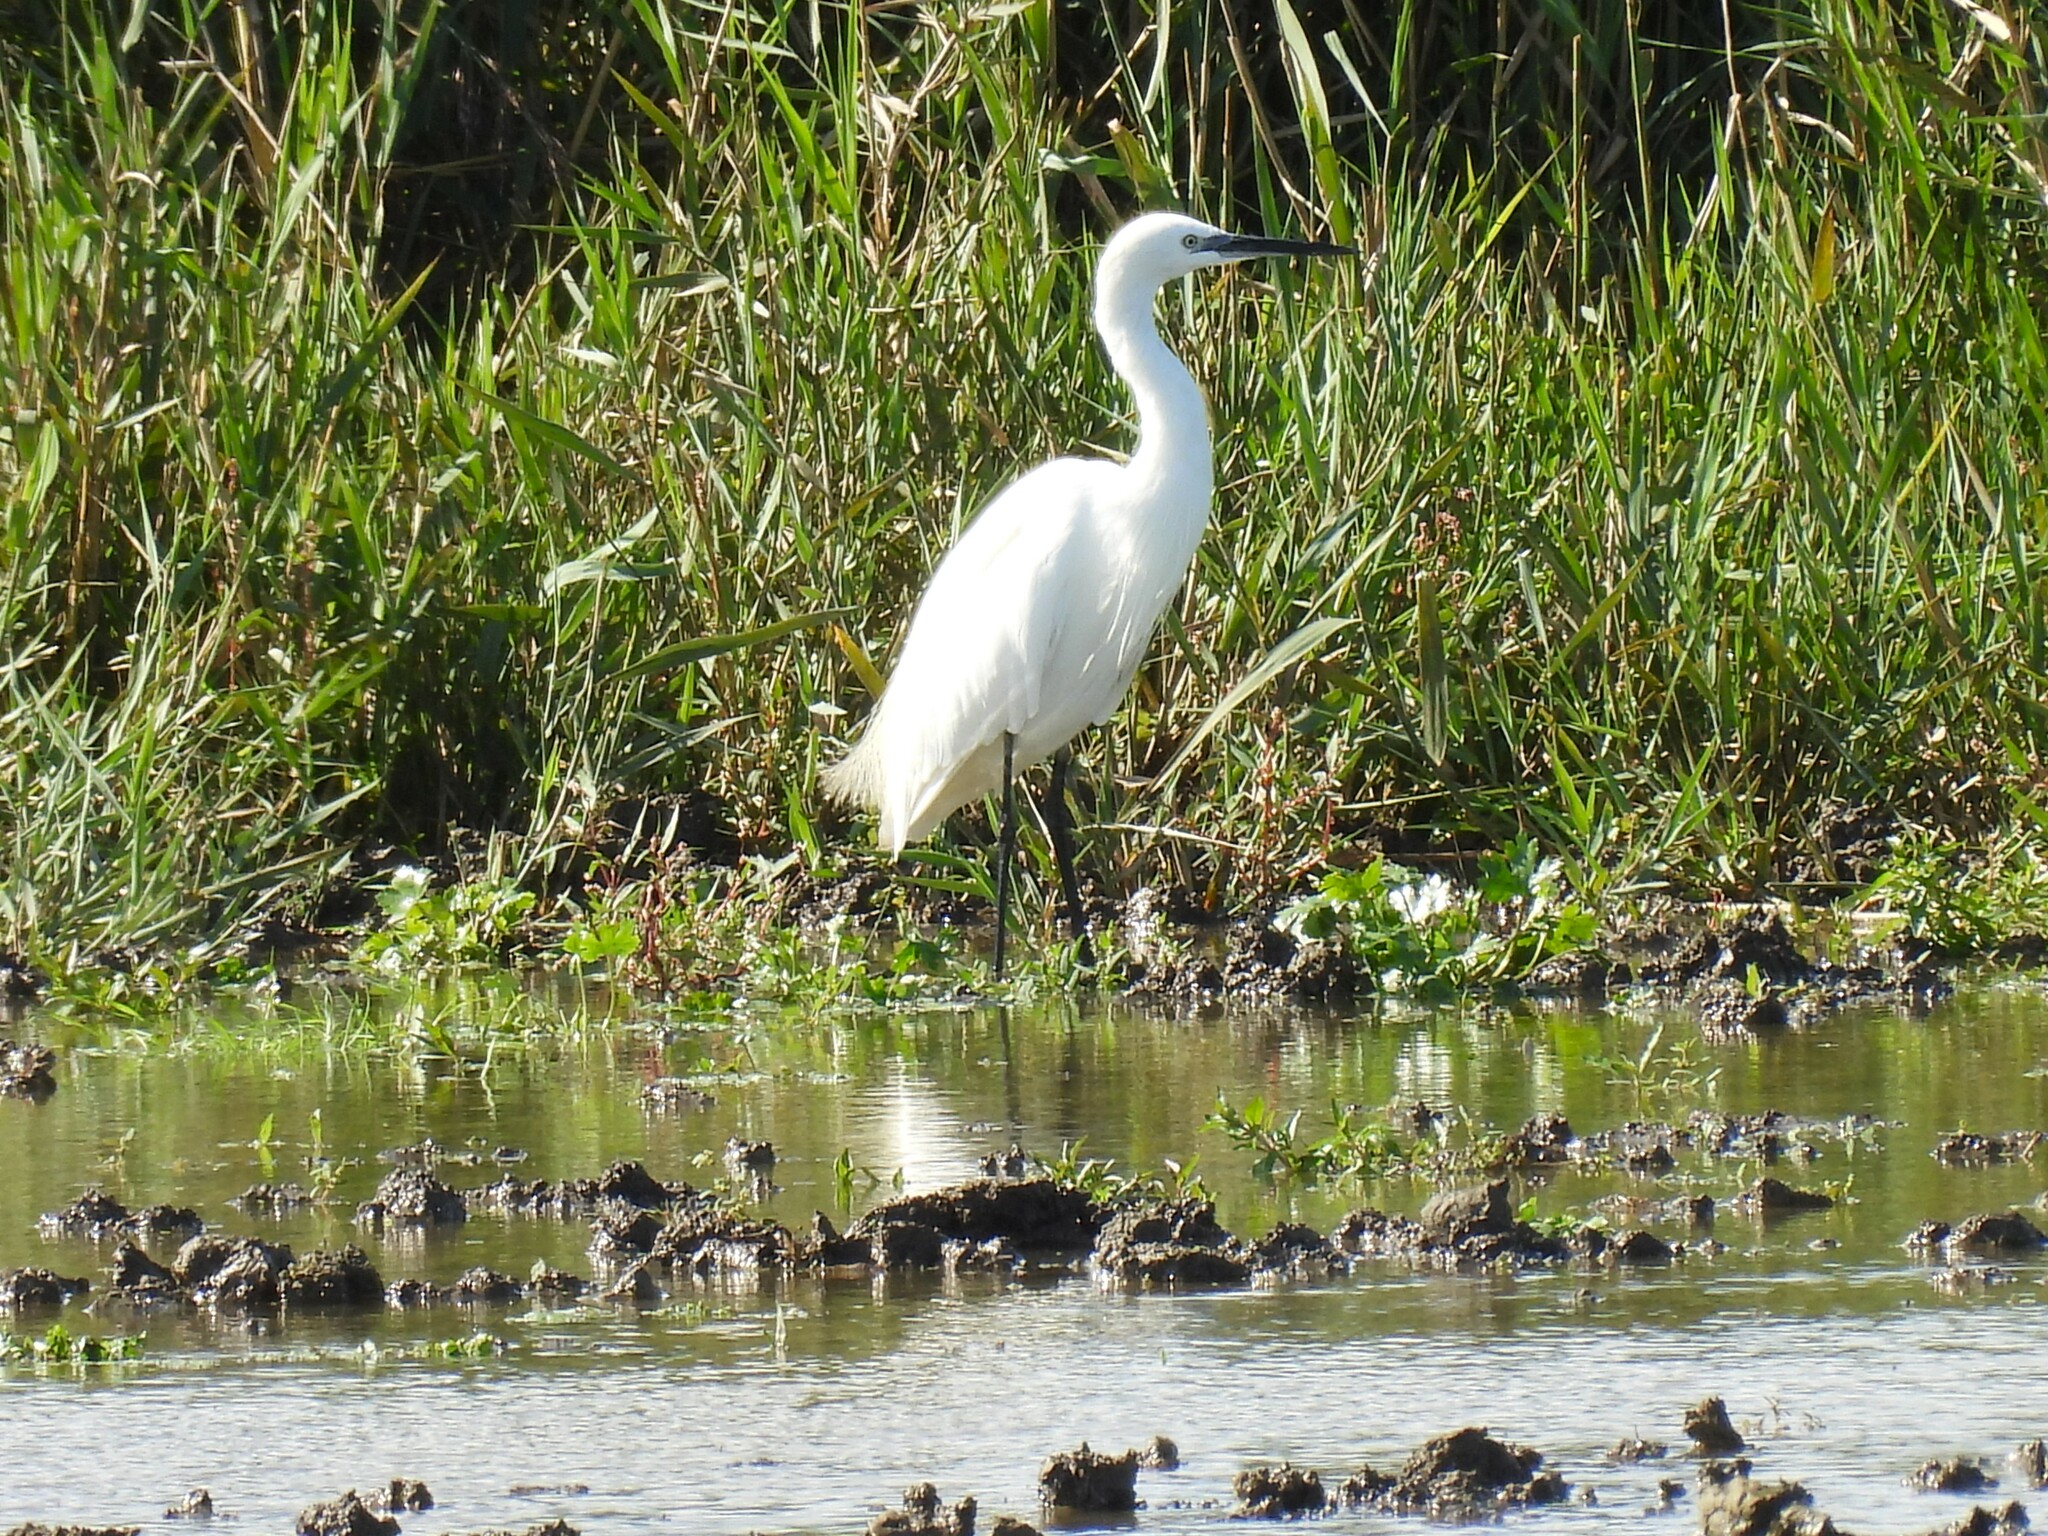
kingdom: Animalia
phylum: Chordata
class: Aves
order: Pelecaniformes
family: Ardeidae
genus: Egretta
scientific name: Egretta garzetta
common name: Little egret
